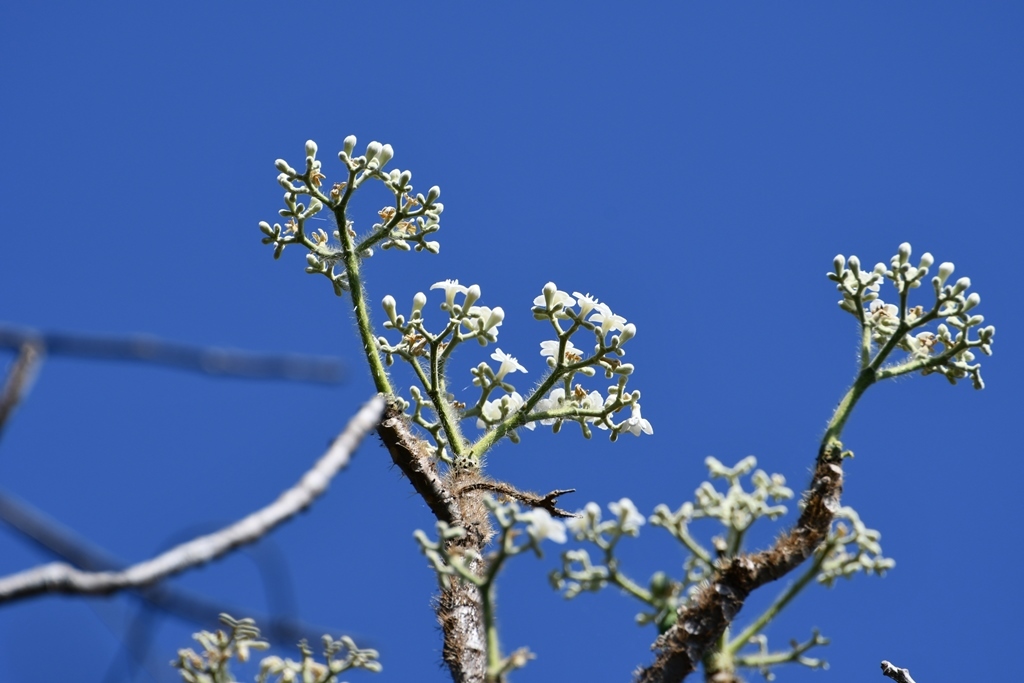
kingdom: Plantae
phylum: Tracheophyta
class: Magnoliopsida
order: Malpighiales
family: Euphorbiaceae
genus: Cnidoscolus
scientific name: Cnidoscolus multilobus
